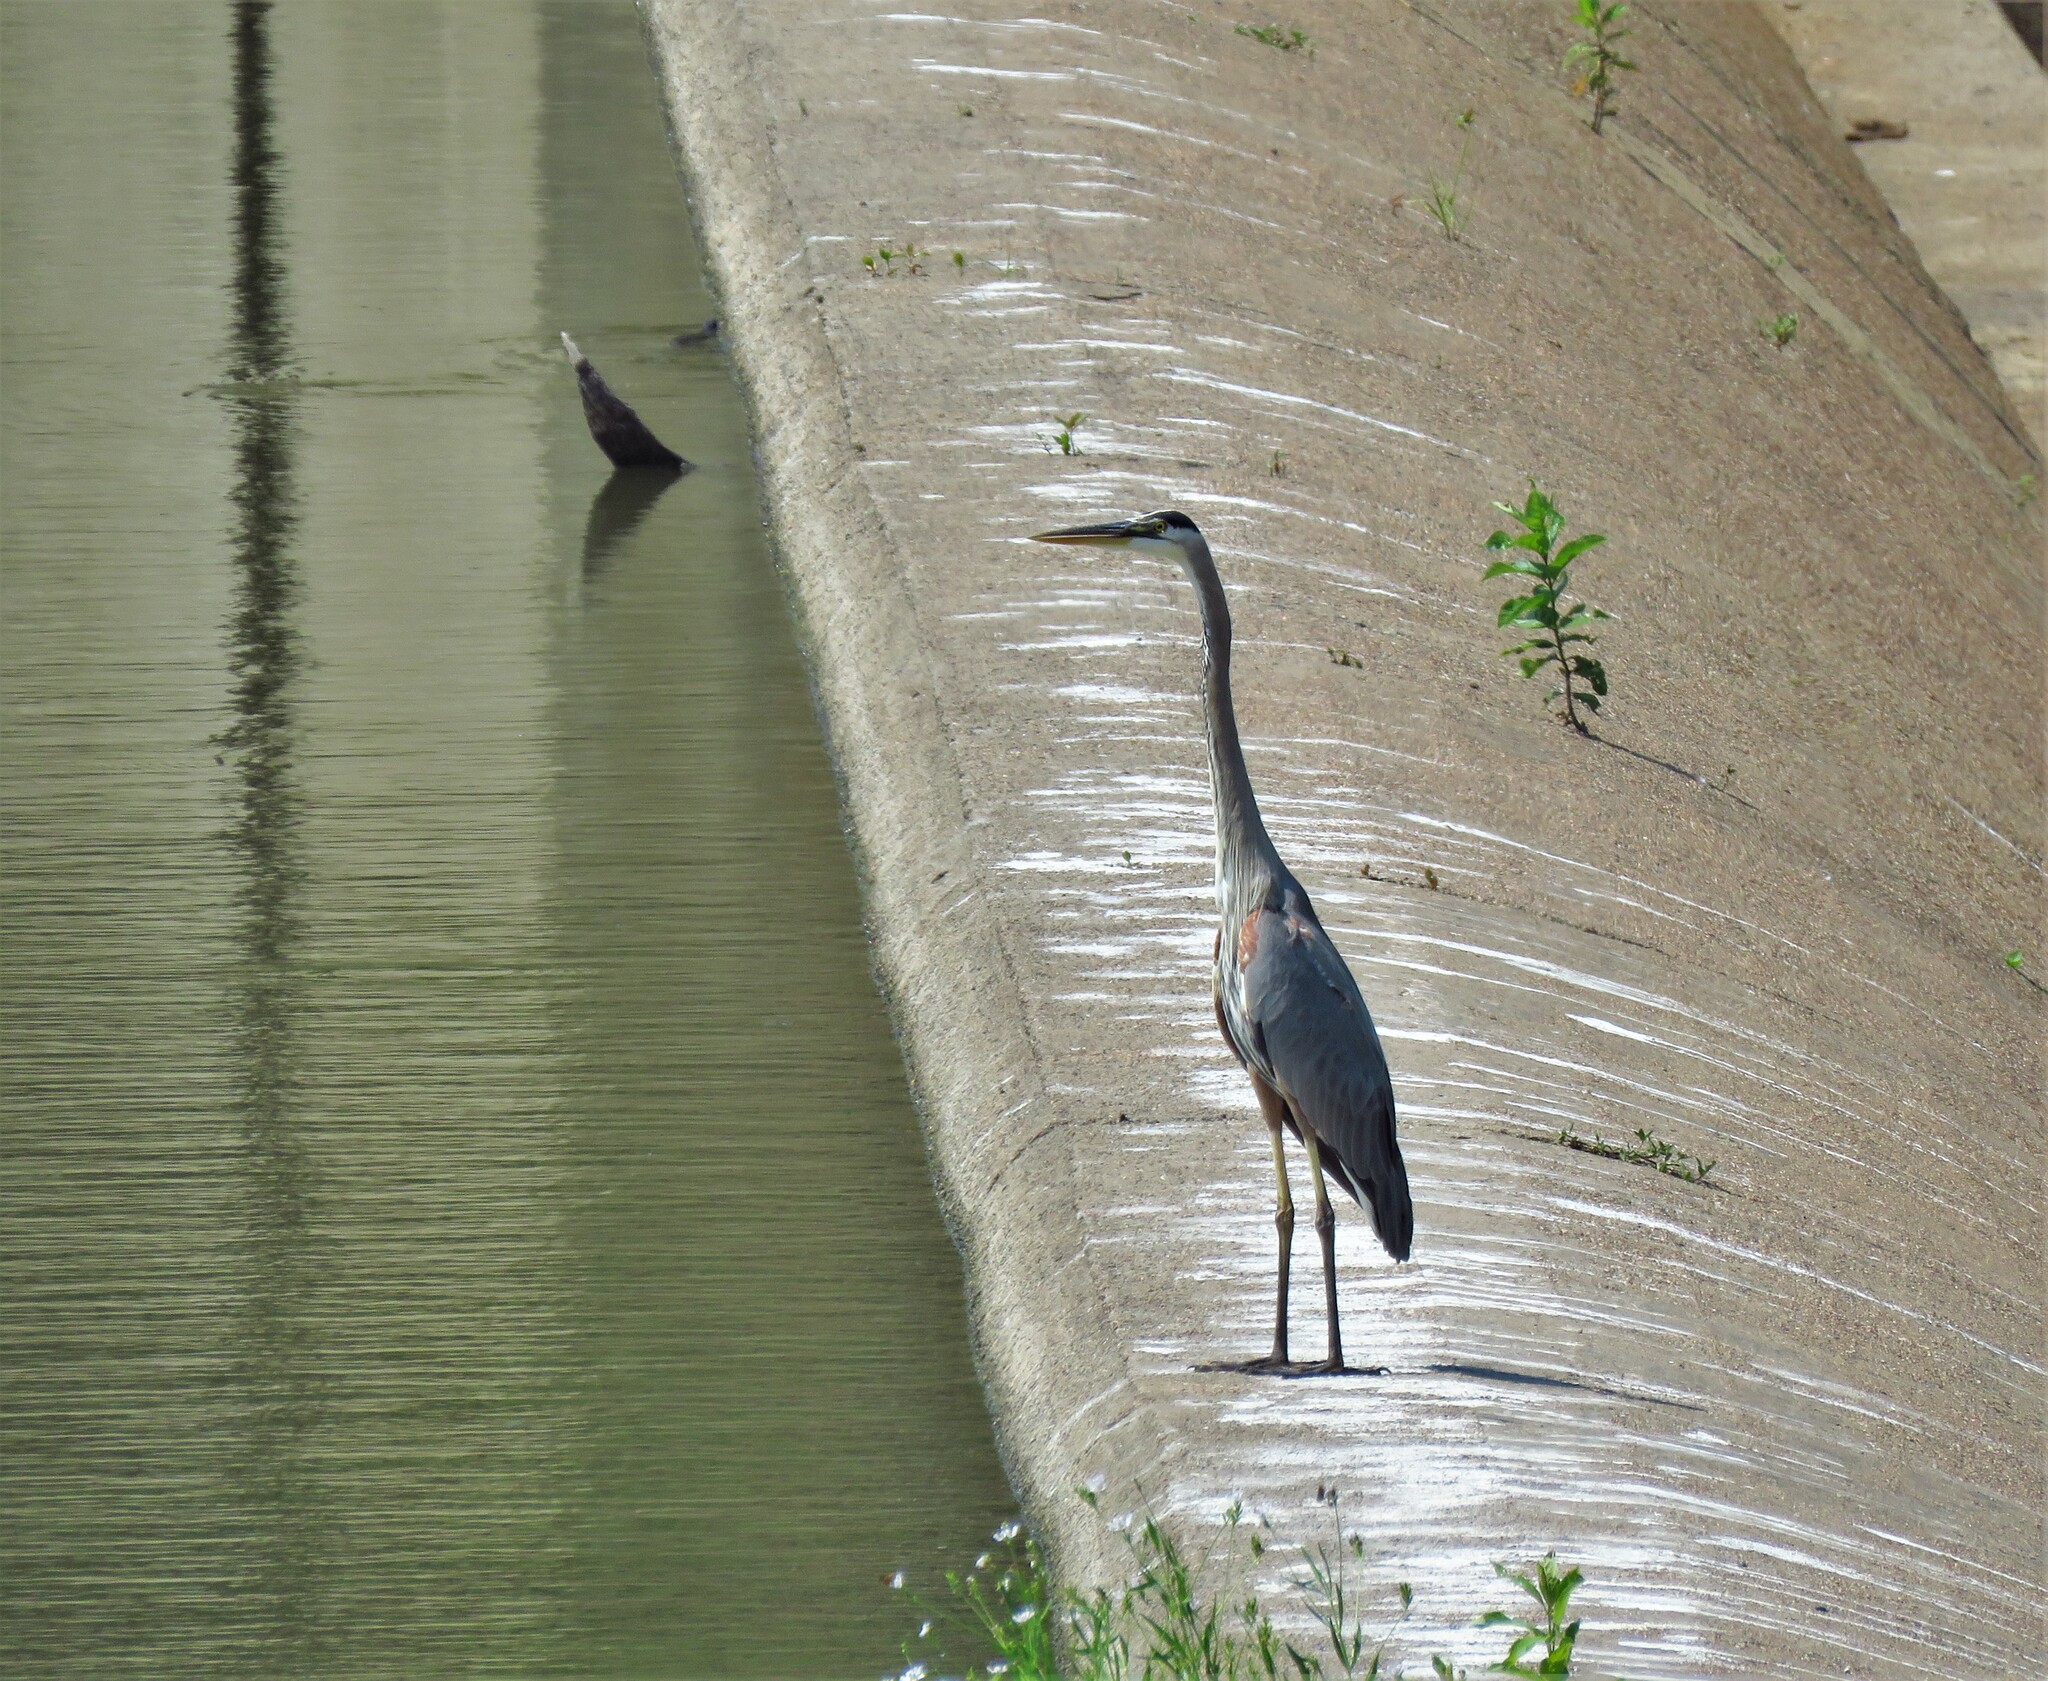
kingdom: Animalia
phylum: Chordata
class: Aves
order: Pelecaniformes
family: Ardeidae
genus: Ardea
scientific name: Ardea herodias
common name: Great blue heron
